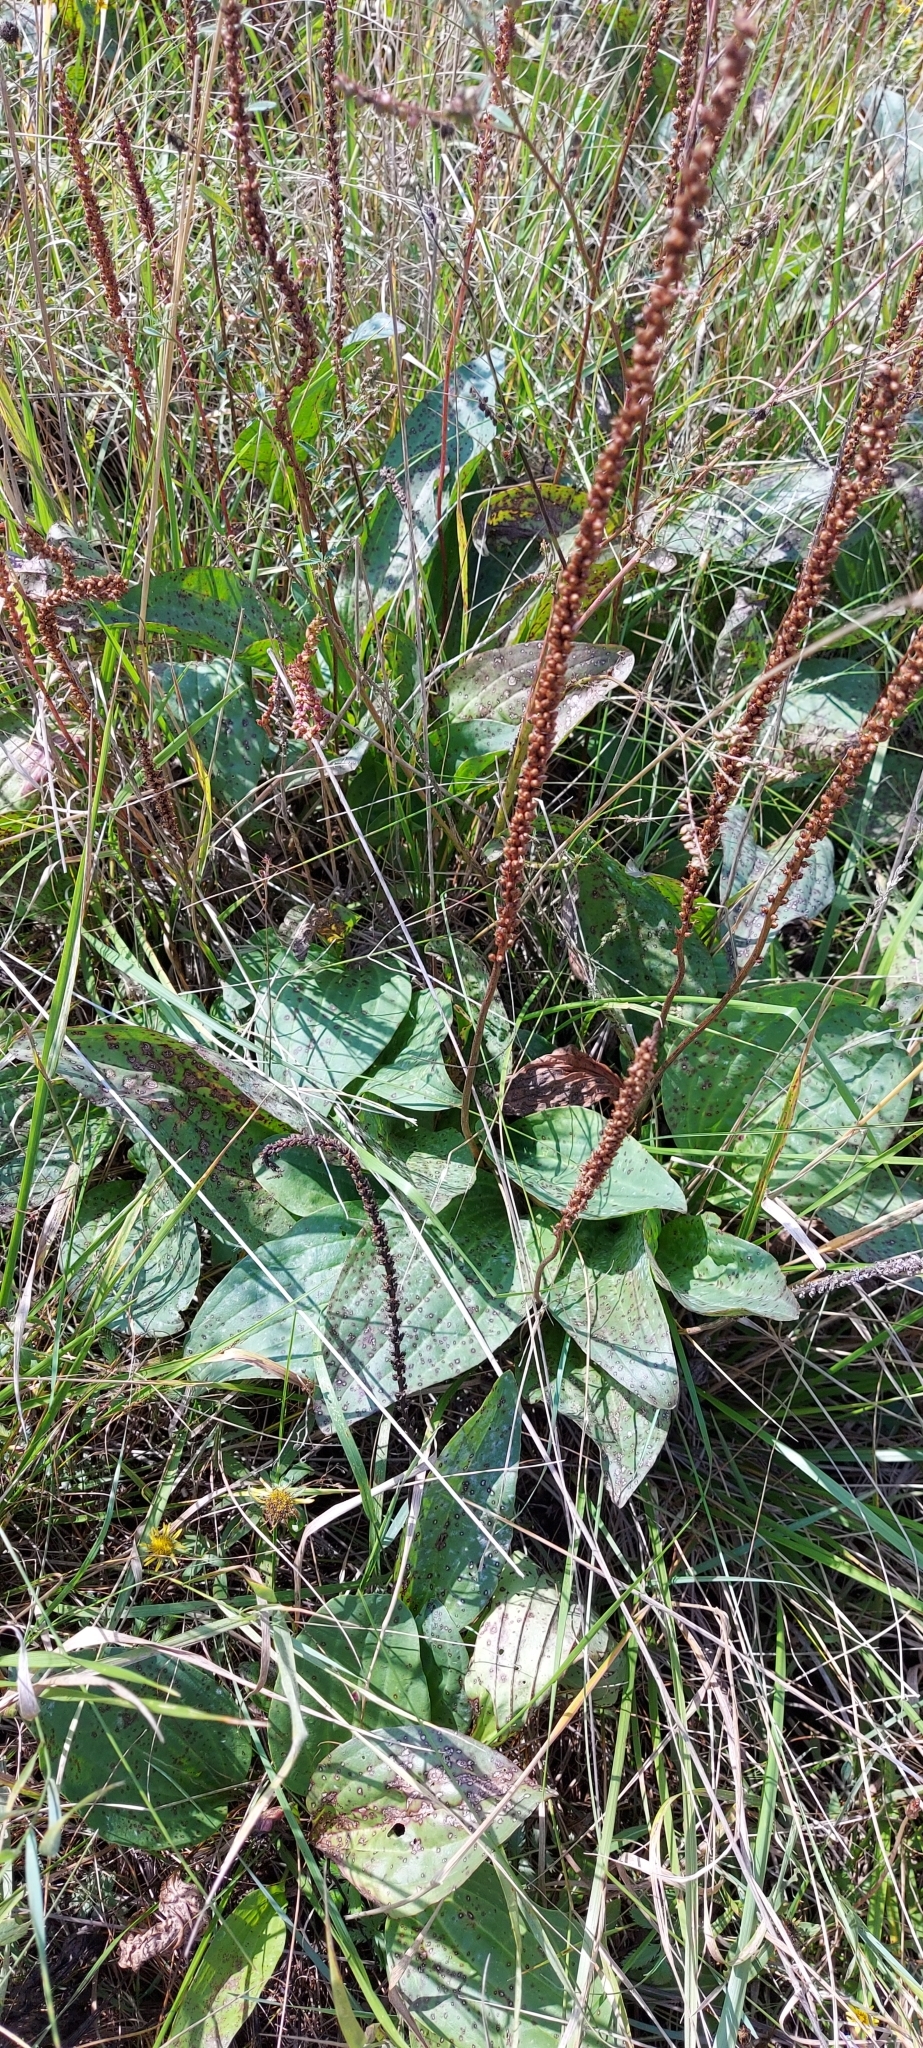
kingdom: Plantae
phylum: Tracheophyta
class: Magnoliopsida
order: Lamiales
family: Plantaginaceae
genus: Plantago
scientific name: Plantago cornuti
